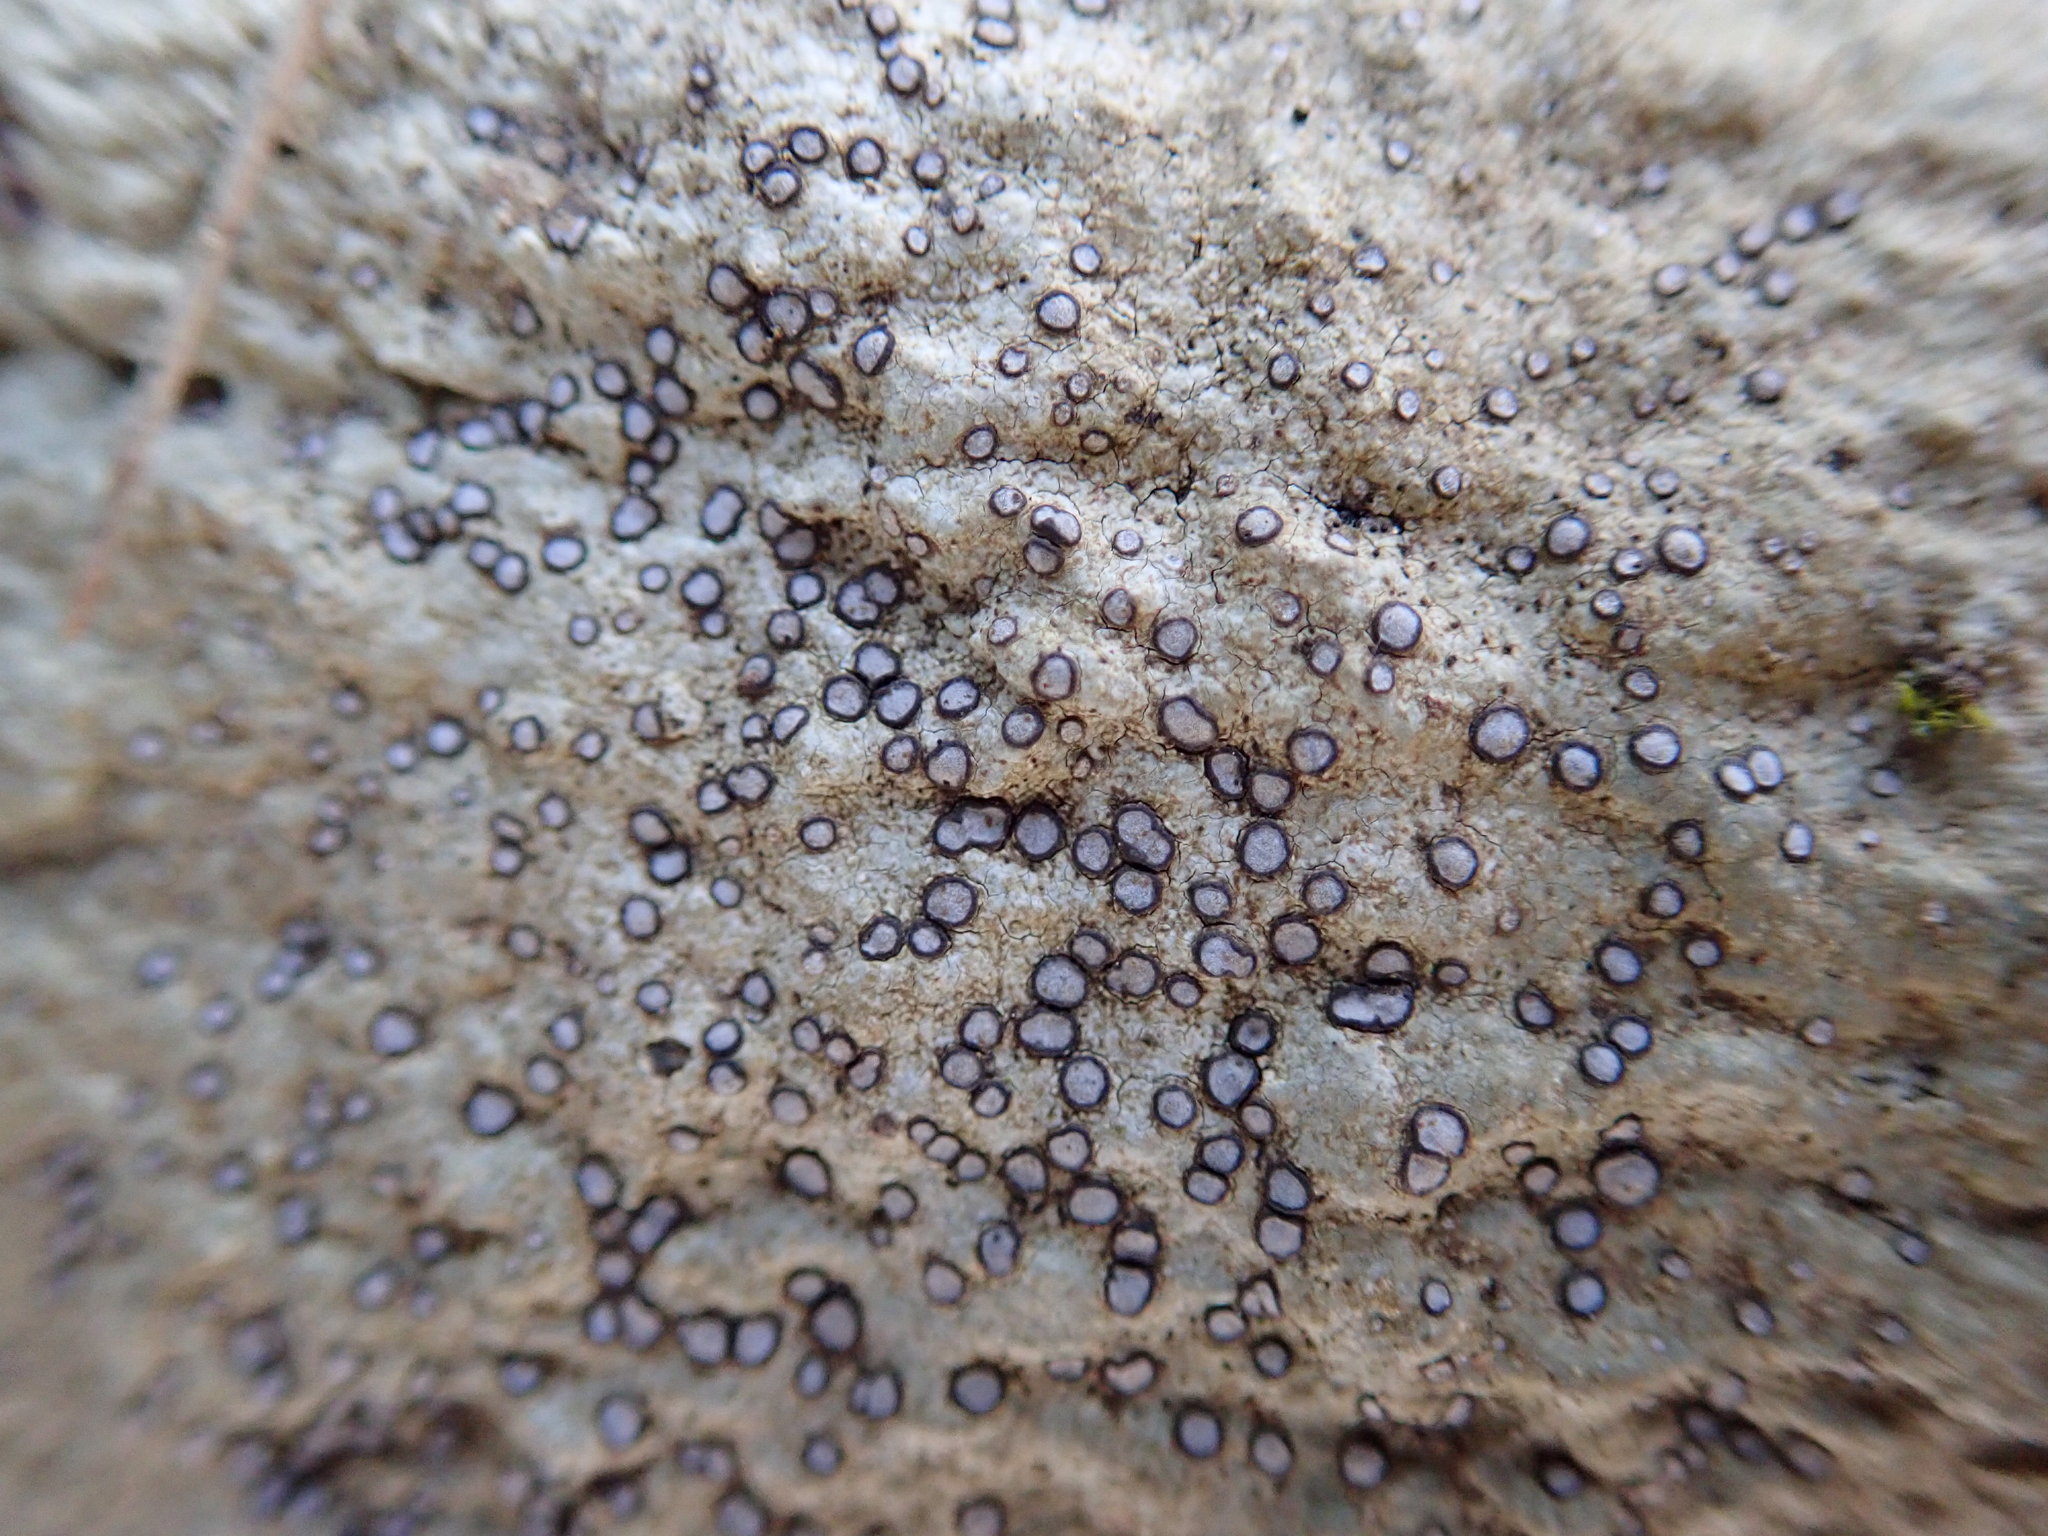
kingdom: Fungi
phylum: Ascomycota
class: Lecanoromycetes
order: Lecideales
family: Lecideaceae
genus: Porpidia
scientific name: Porpidia albocaerulescens
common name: Smokey-eyed boulder lichen
